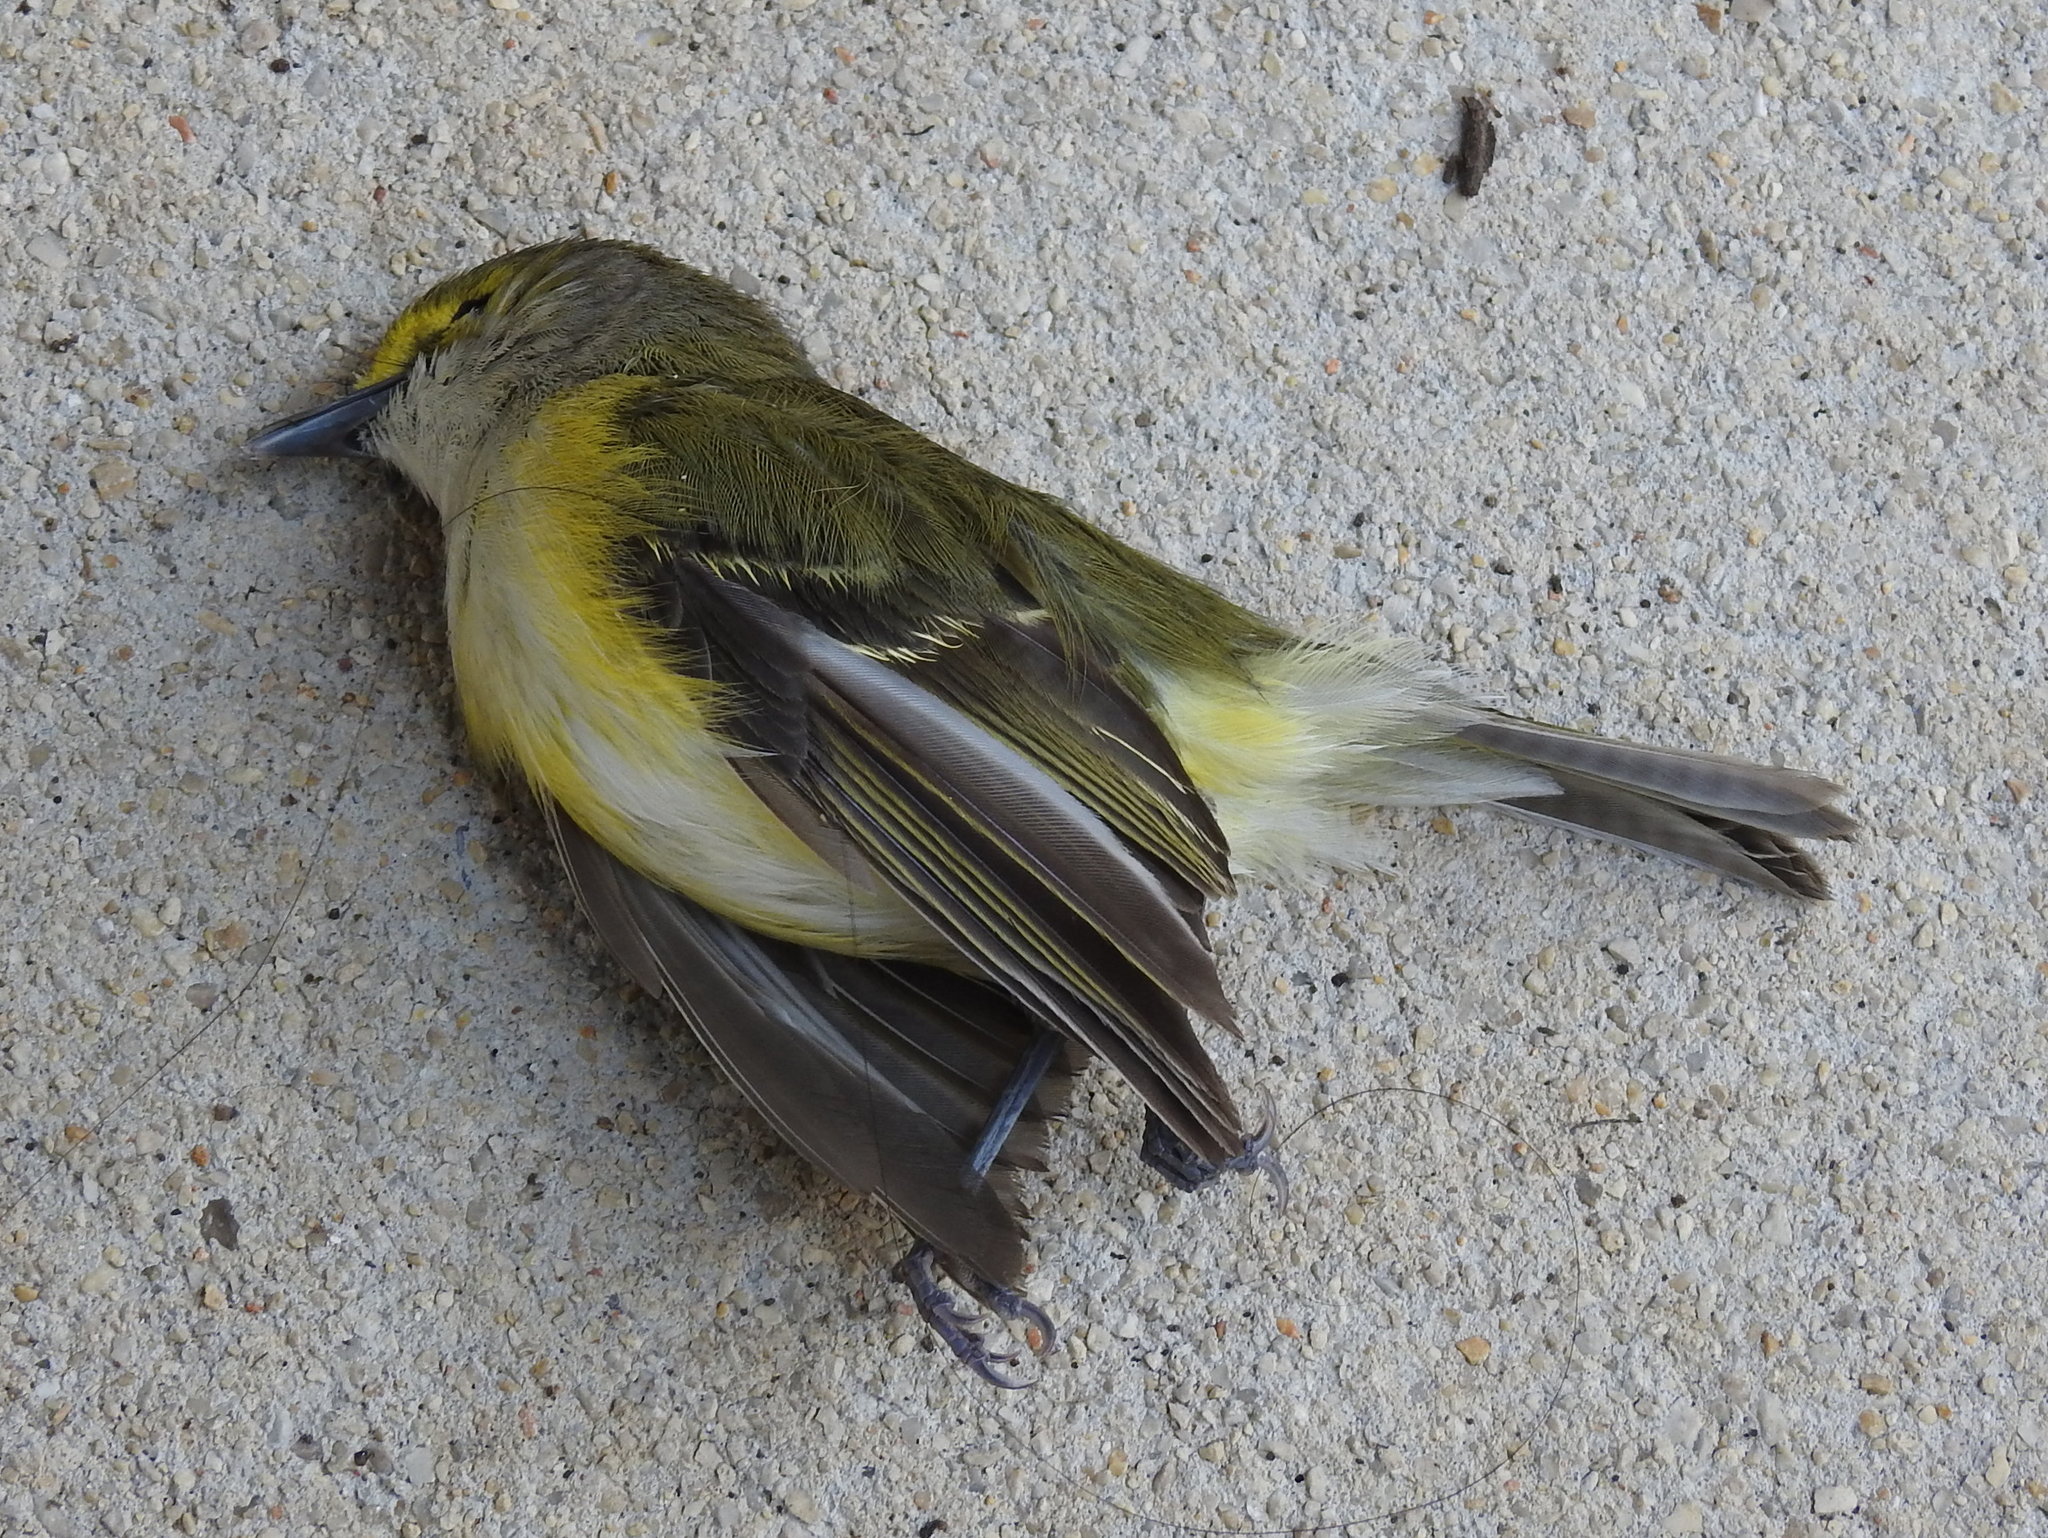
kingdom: Animalia
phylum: Chordata
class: Aves
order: Passeriformes
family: Vireonidae
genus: Vireo
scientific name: Vireo griseus
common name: White-eyed vireo
